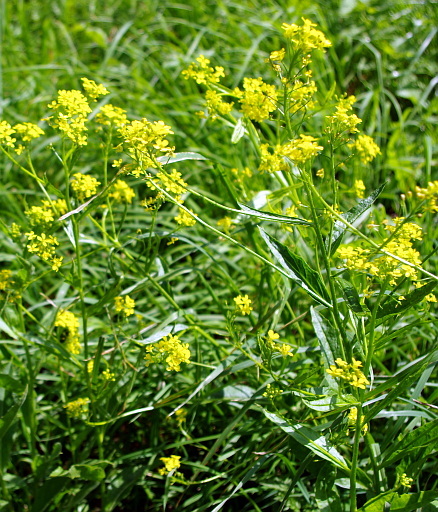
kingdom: Plantae
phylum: Tracheophyta
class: Magnoliopsida
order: Brassicales
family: Brassicaceae
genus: Bunias
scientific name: Bunias orientalis
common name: Warty-cabbage
